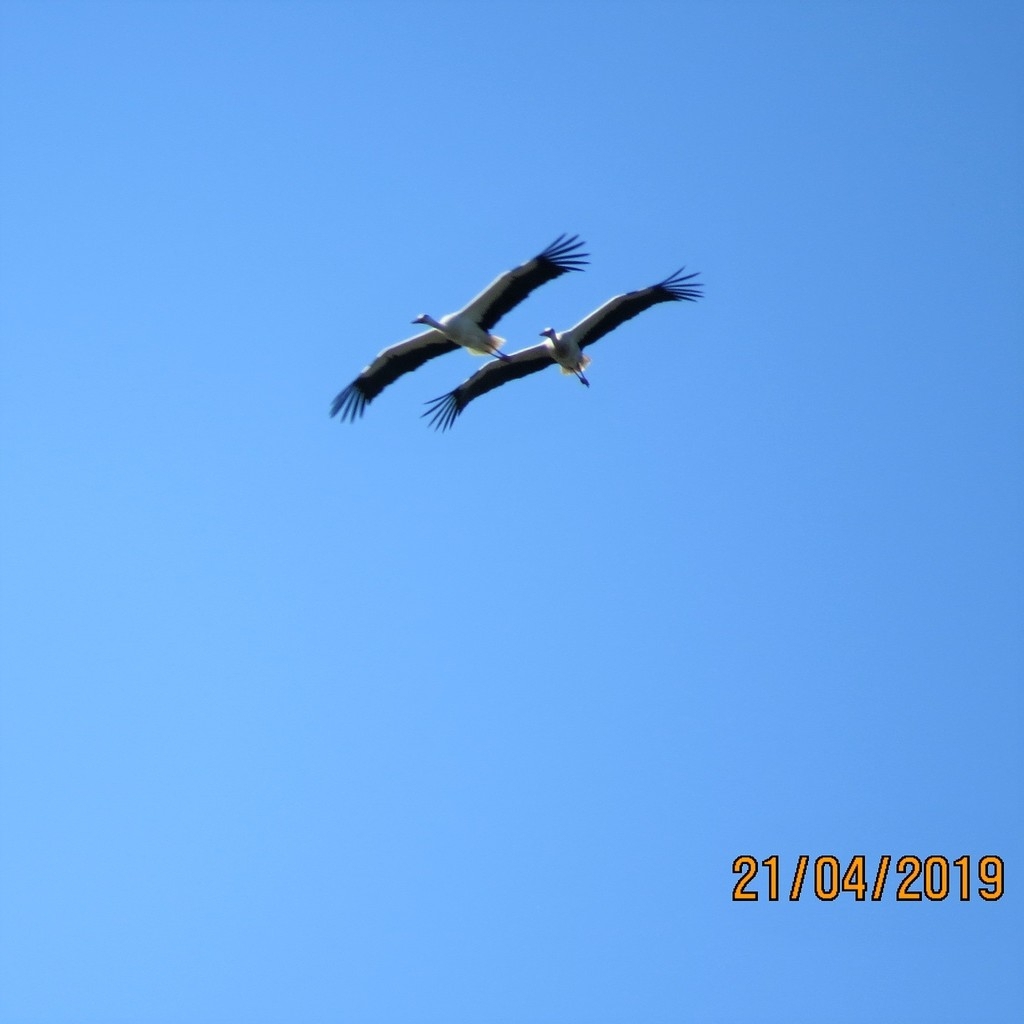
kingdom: Animalia
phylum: Chordata
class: Aves
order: Ciconiiformes
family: Ciconiidae
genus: Ciconia
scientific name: Ciconia ciconia
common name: White stork
